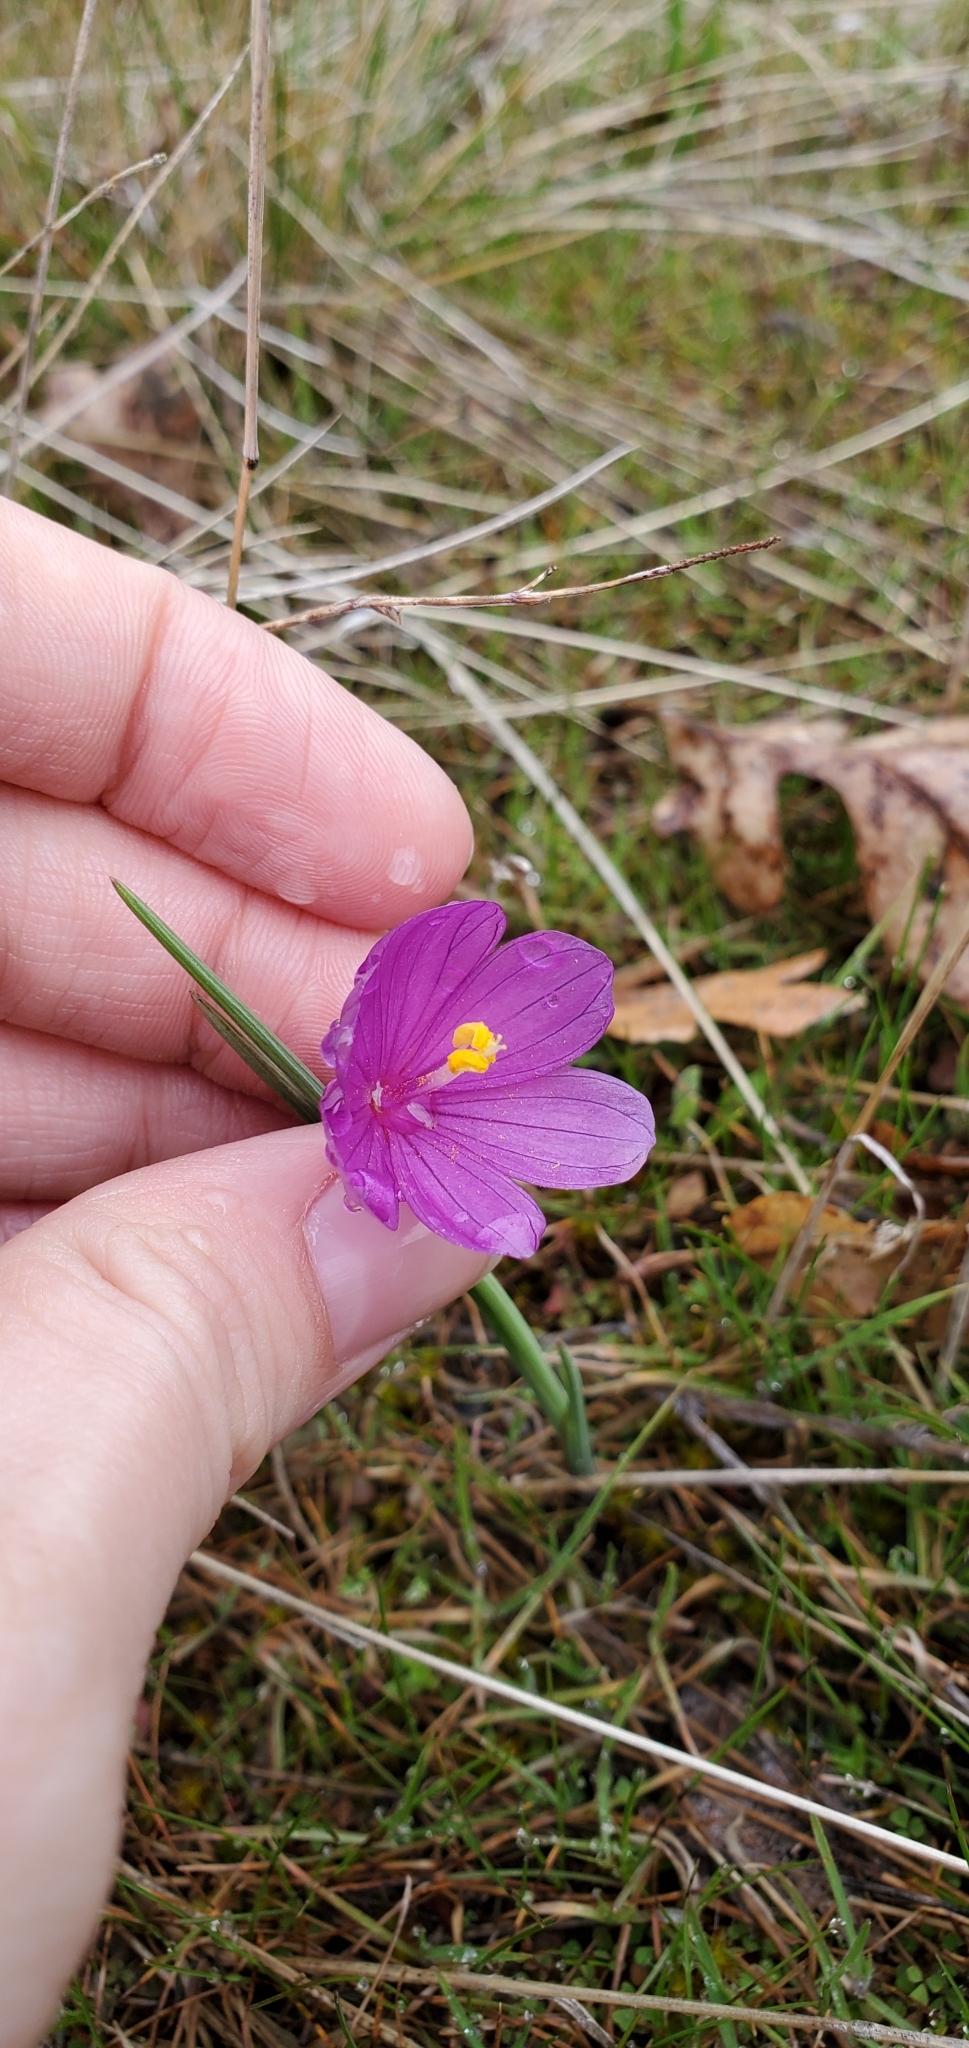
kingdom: Plantae
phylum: Tracheophyta
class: Liliopsida
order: Asparagales
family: Iridaceae
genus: Olsynium
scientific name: Olsynium douglasii
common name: Douglas' grasswidow
